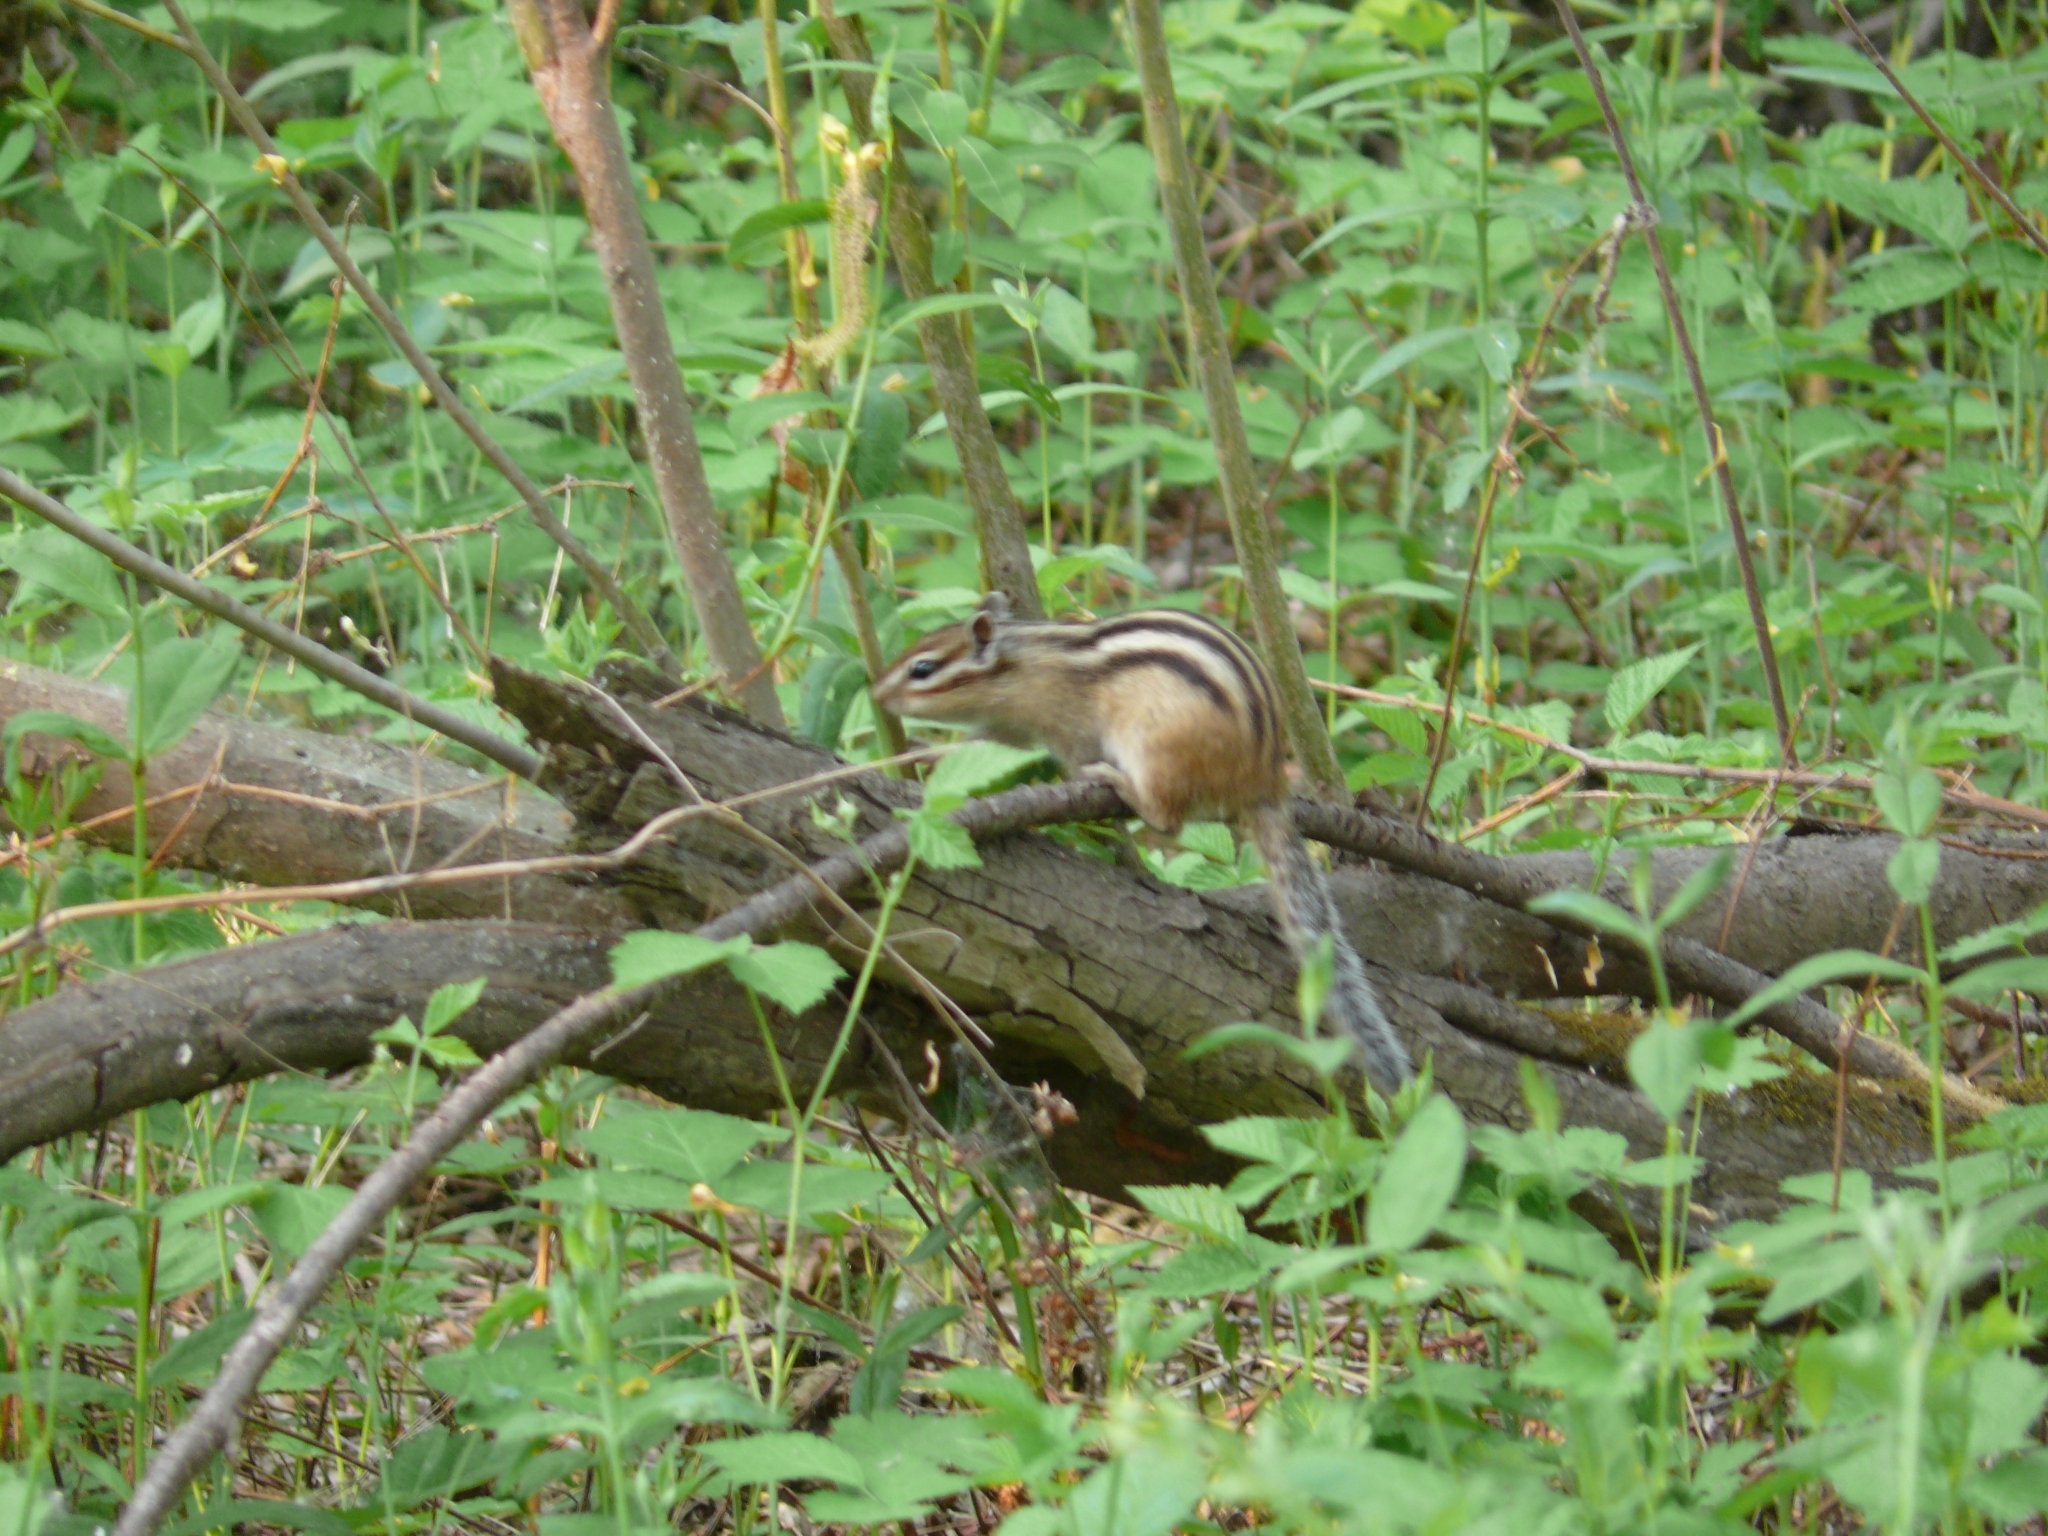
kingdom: Animalia
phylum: Chordata
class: Mammalia
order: Rodentia
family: Sciuridae
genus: Tamias
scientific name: Tamias sibiricus
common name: Siberian chipmunk
